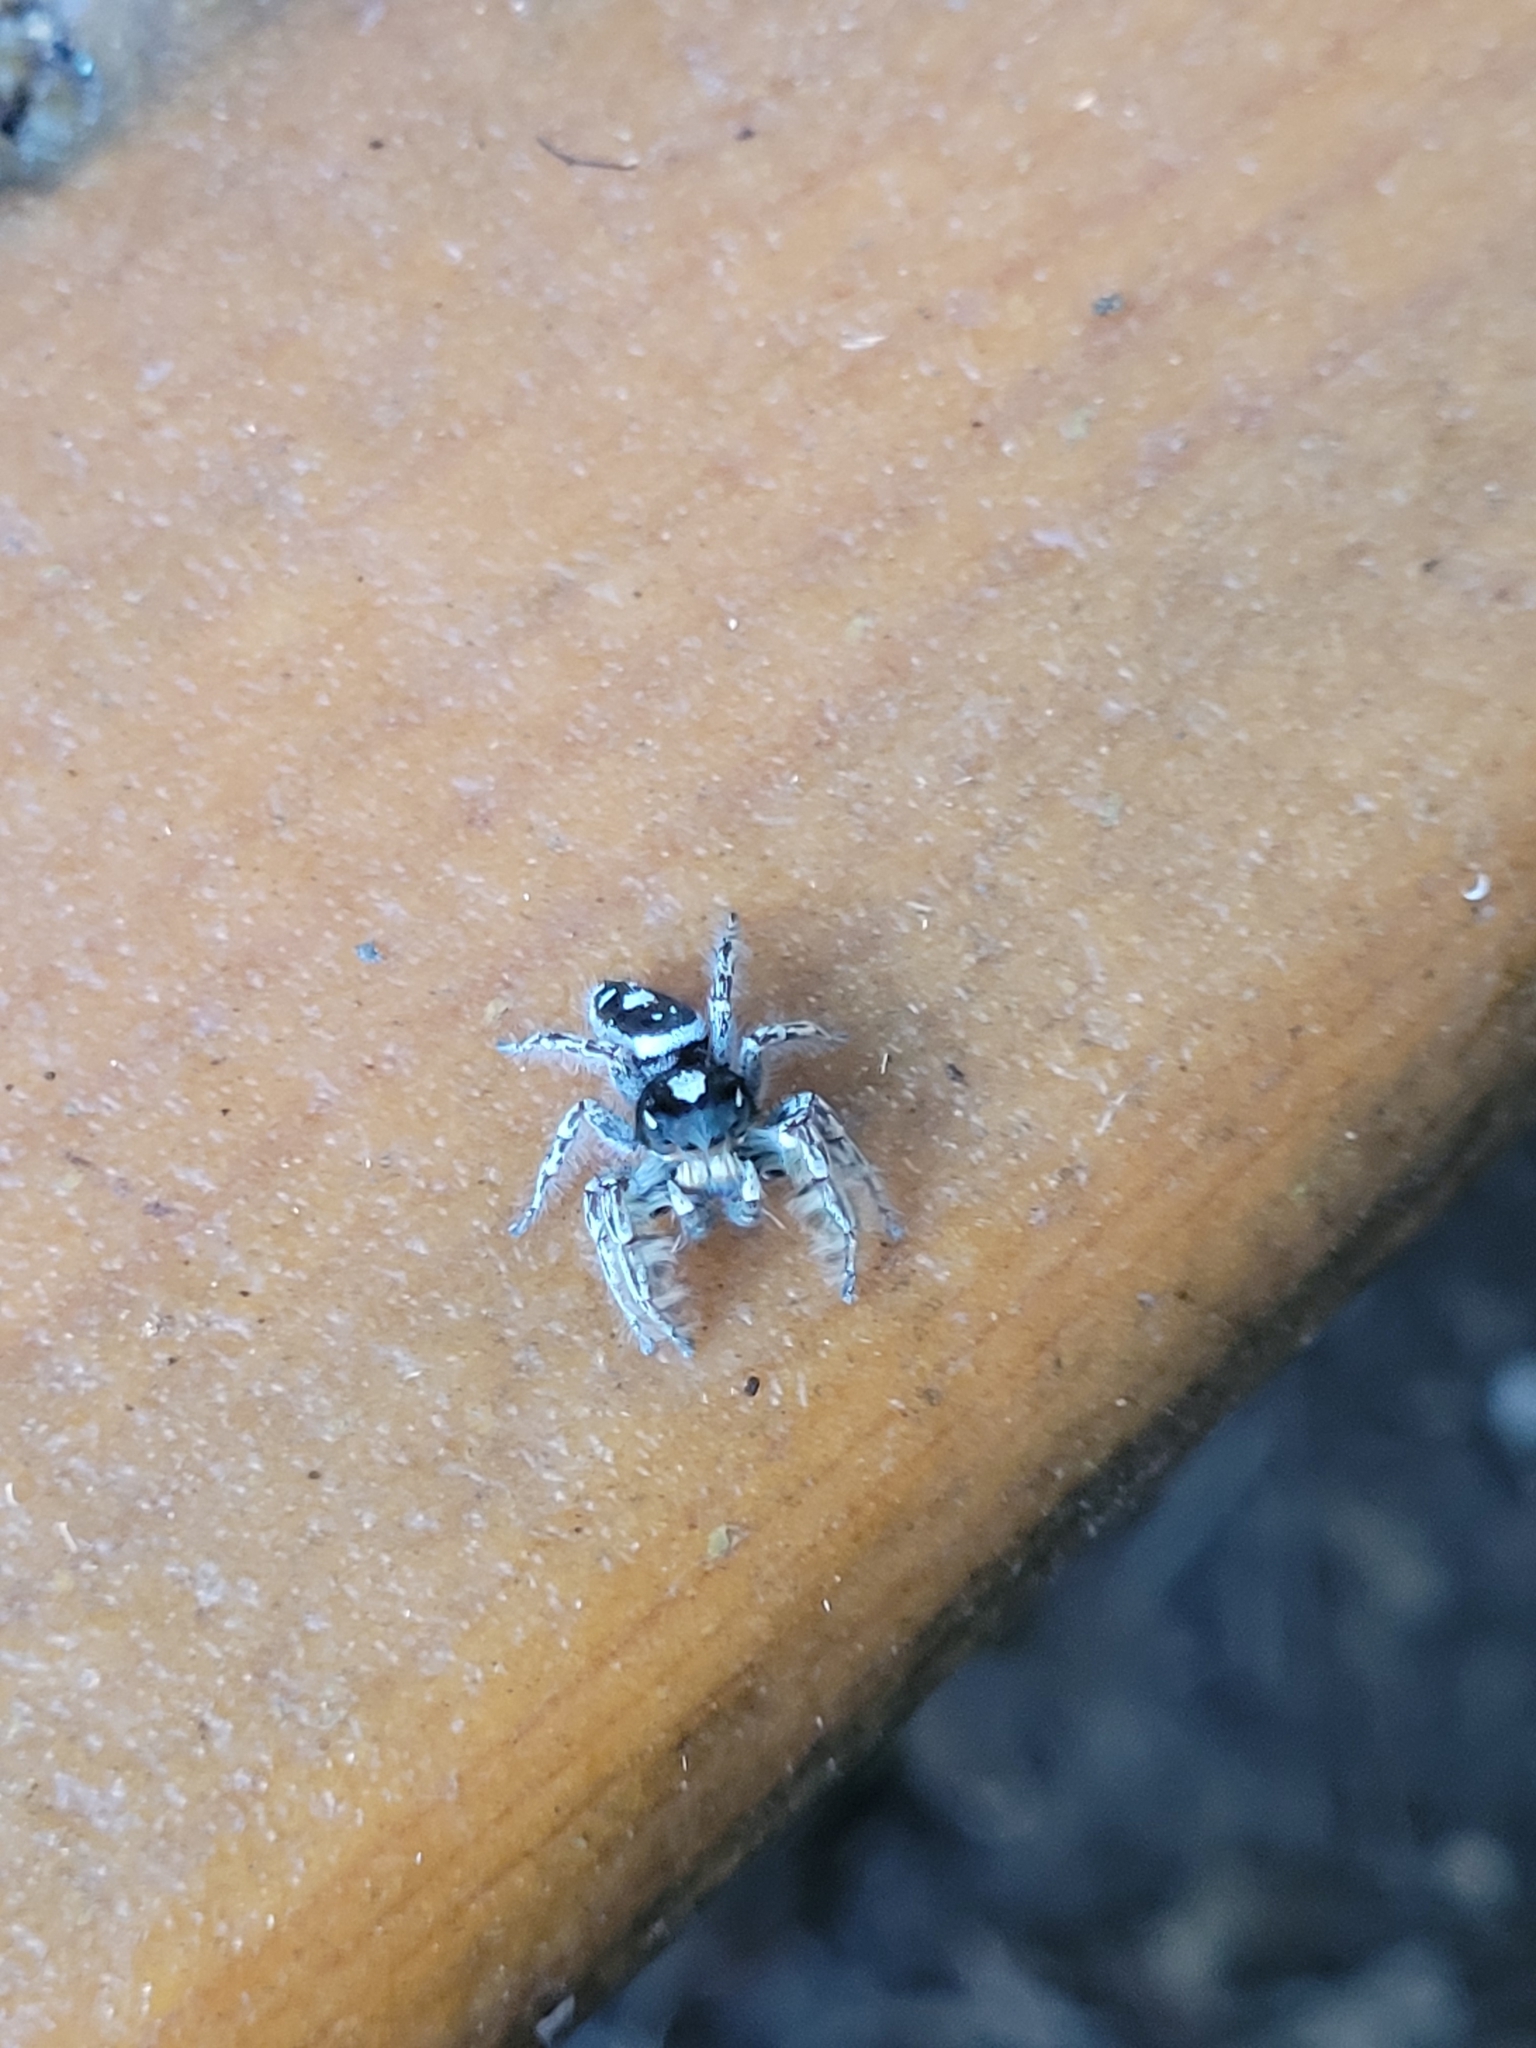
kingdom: Animalia
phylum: Arthropoda
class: Arachnida
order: Araneae
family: Salticidae
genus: Phidippus
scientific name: Phidippus putnami
